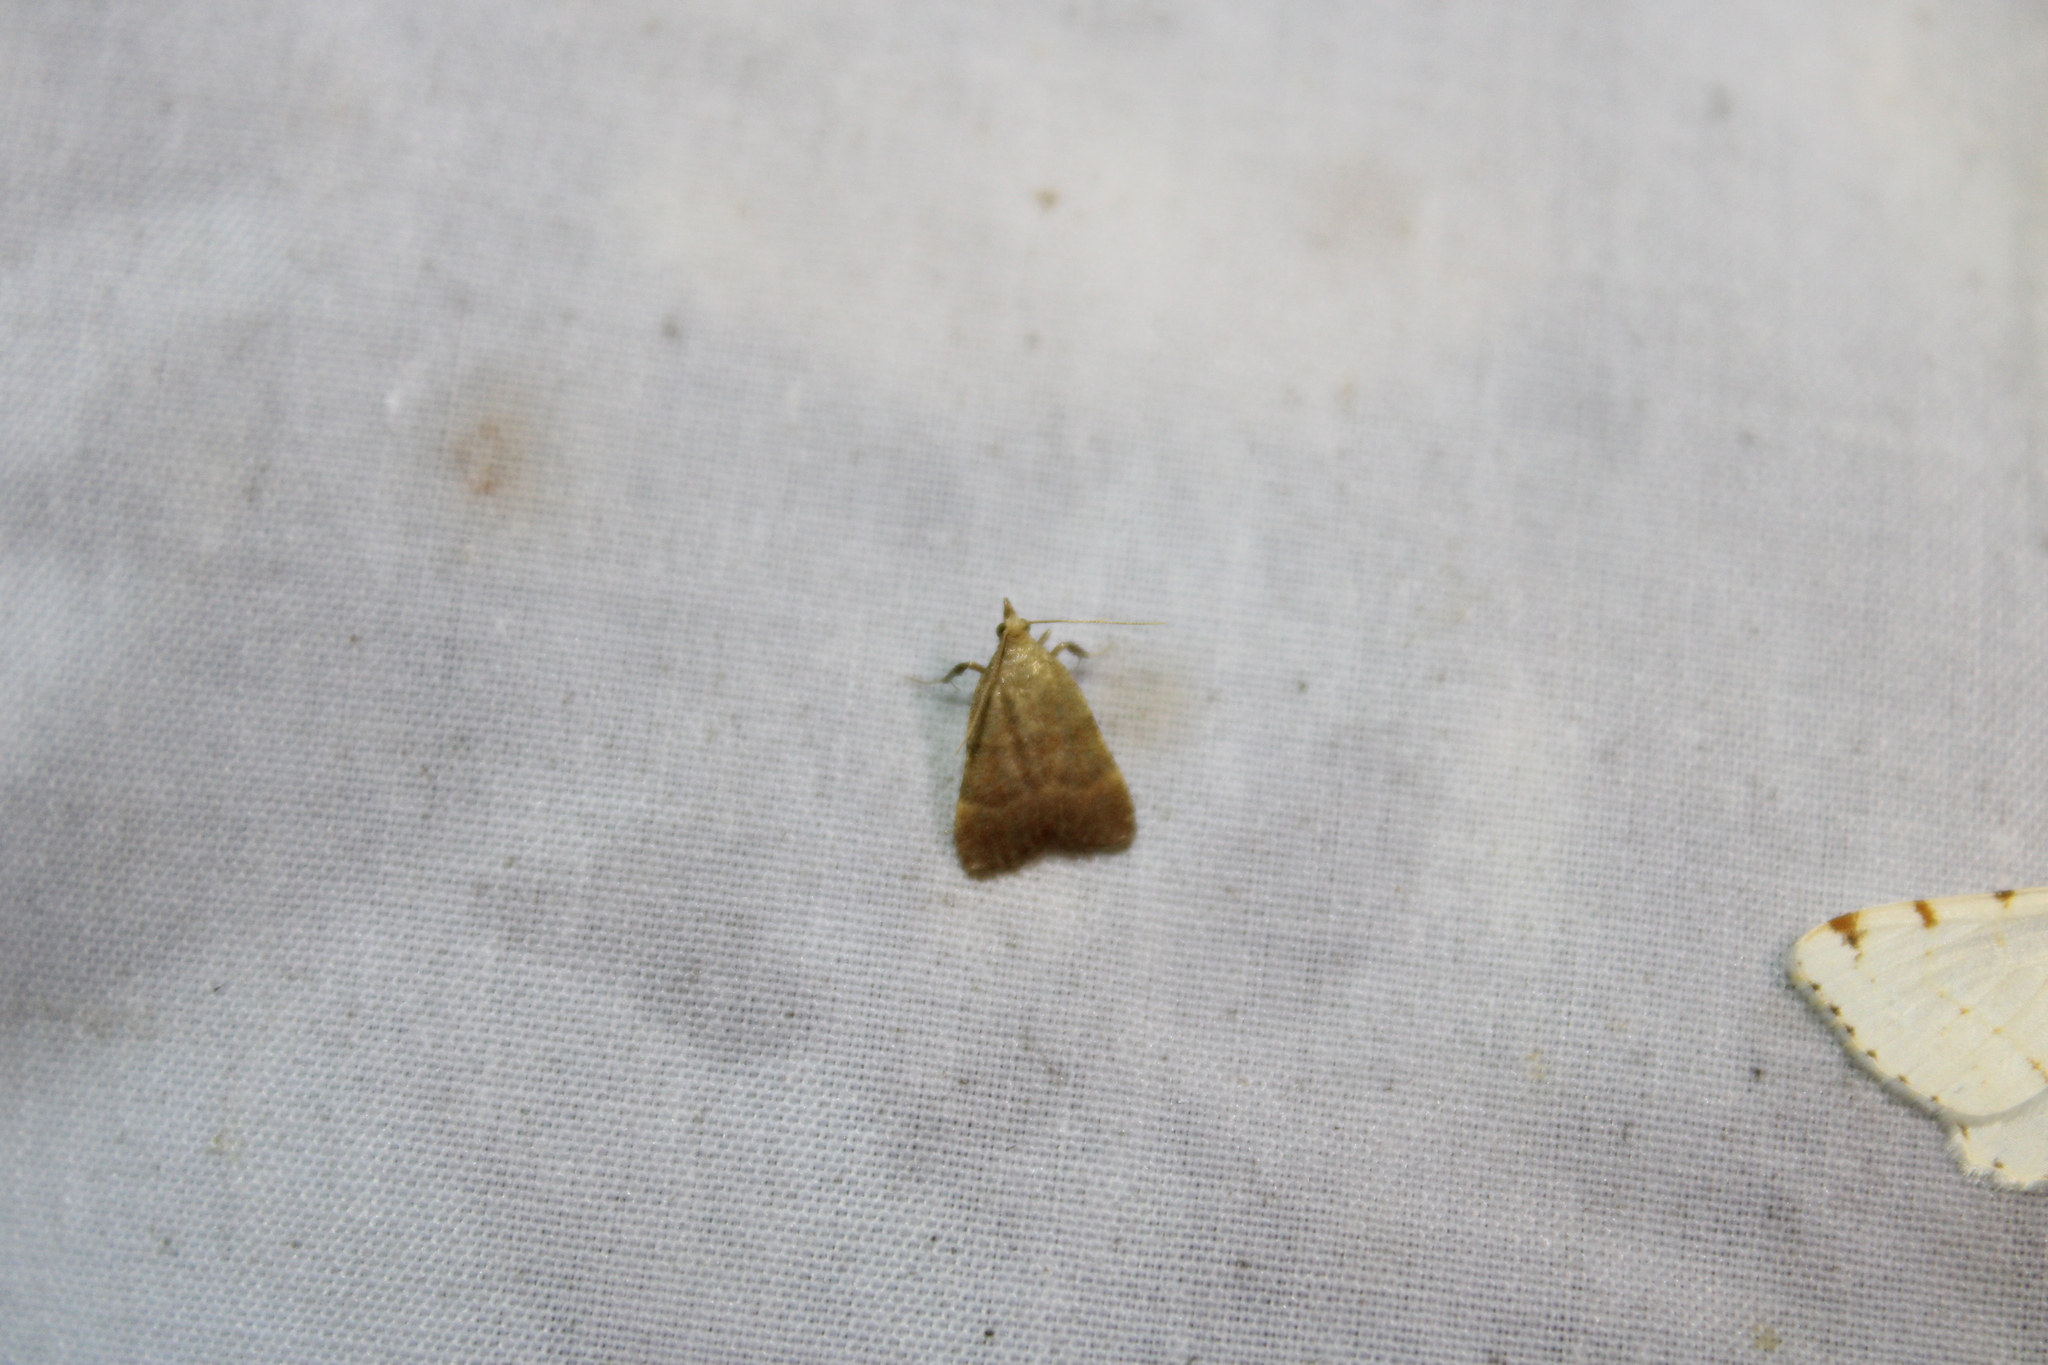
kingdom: Animalia
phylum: Arthropoda
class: Insecta
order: Lepidoptera
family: Pyralidae
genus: Condylolomia
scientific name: Condylolomia participialis
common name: Drab condylolomia moth
